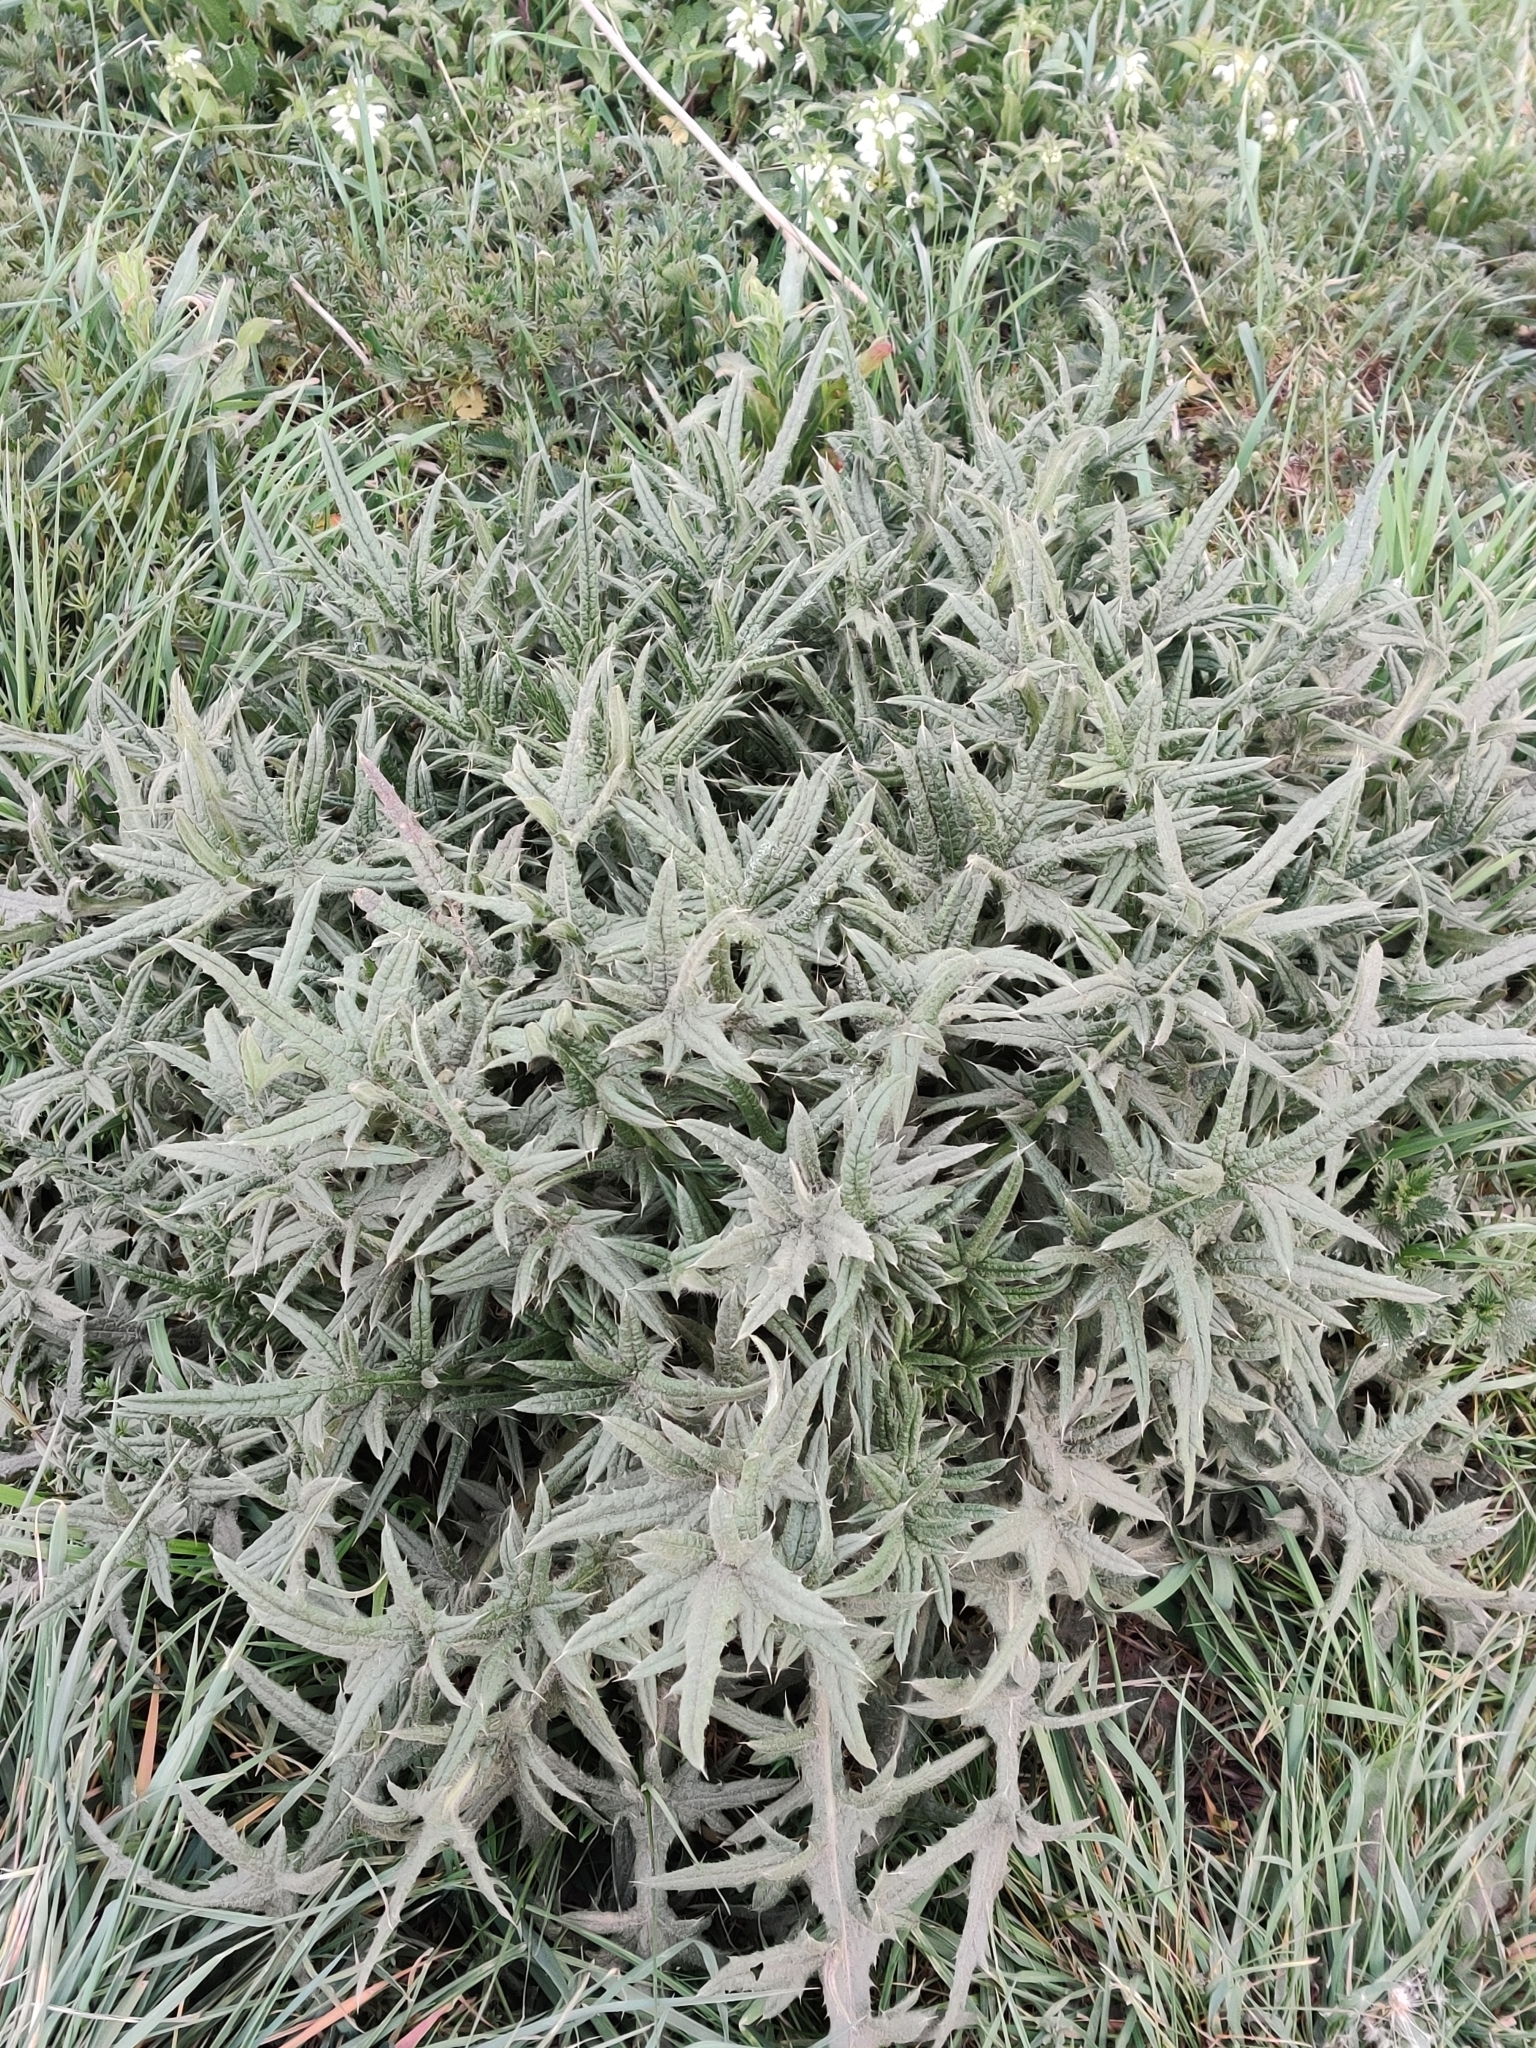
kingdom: Plantae
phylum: Tracheophyta
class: Magnoliopsida
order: Asterales
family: Asteraceae
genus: Cirsium
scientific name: Cirsium vulgare
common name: Bull thistle
